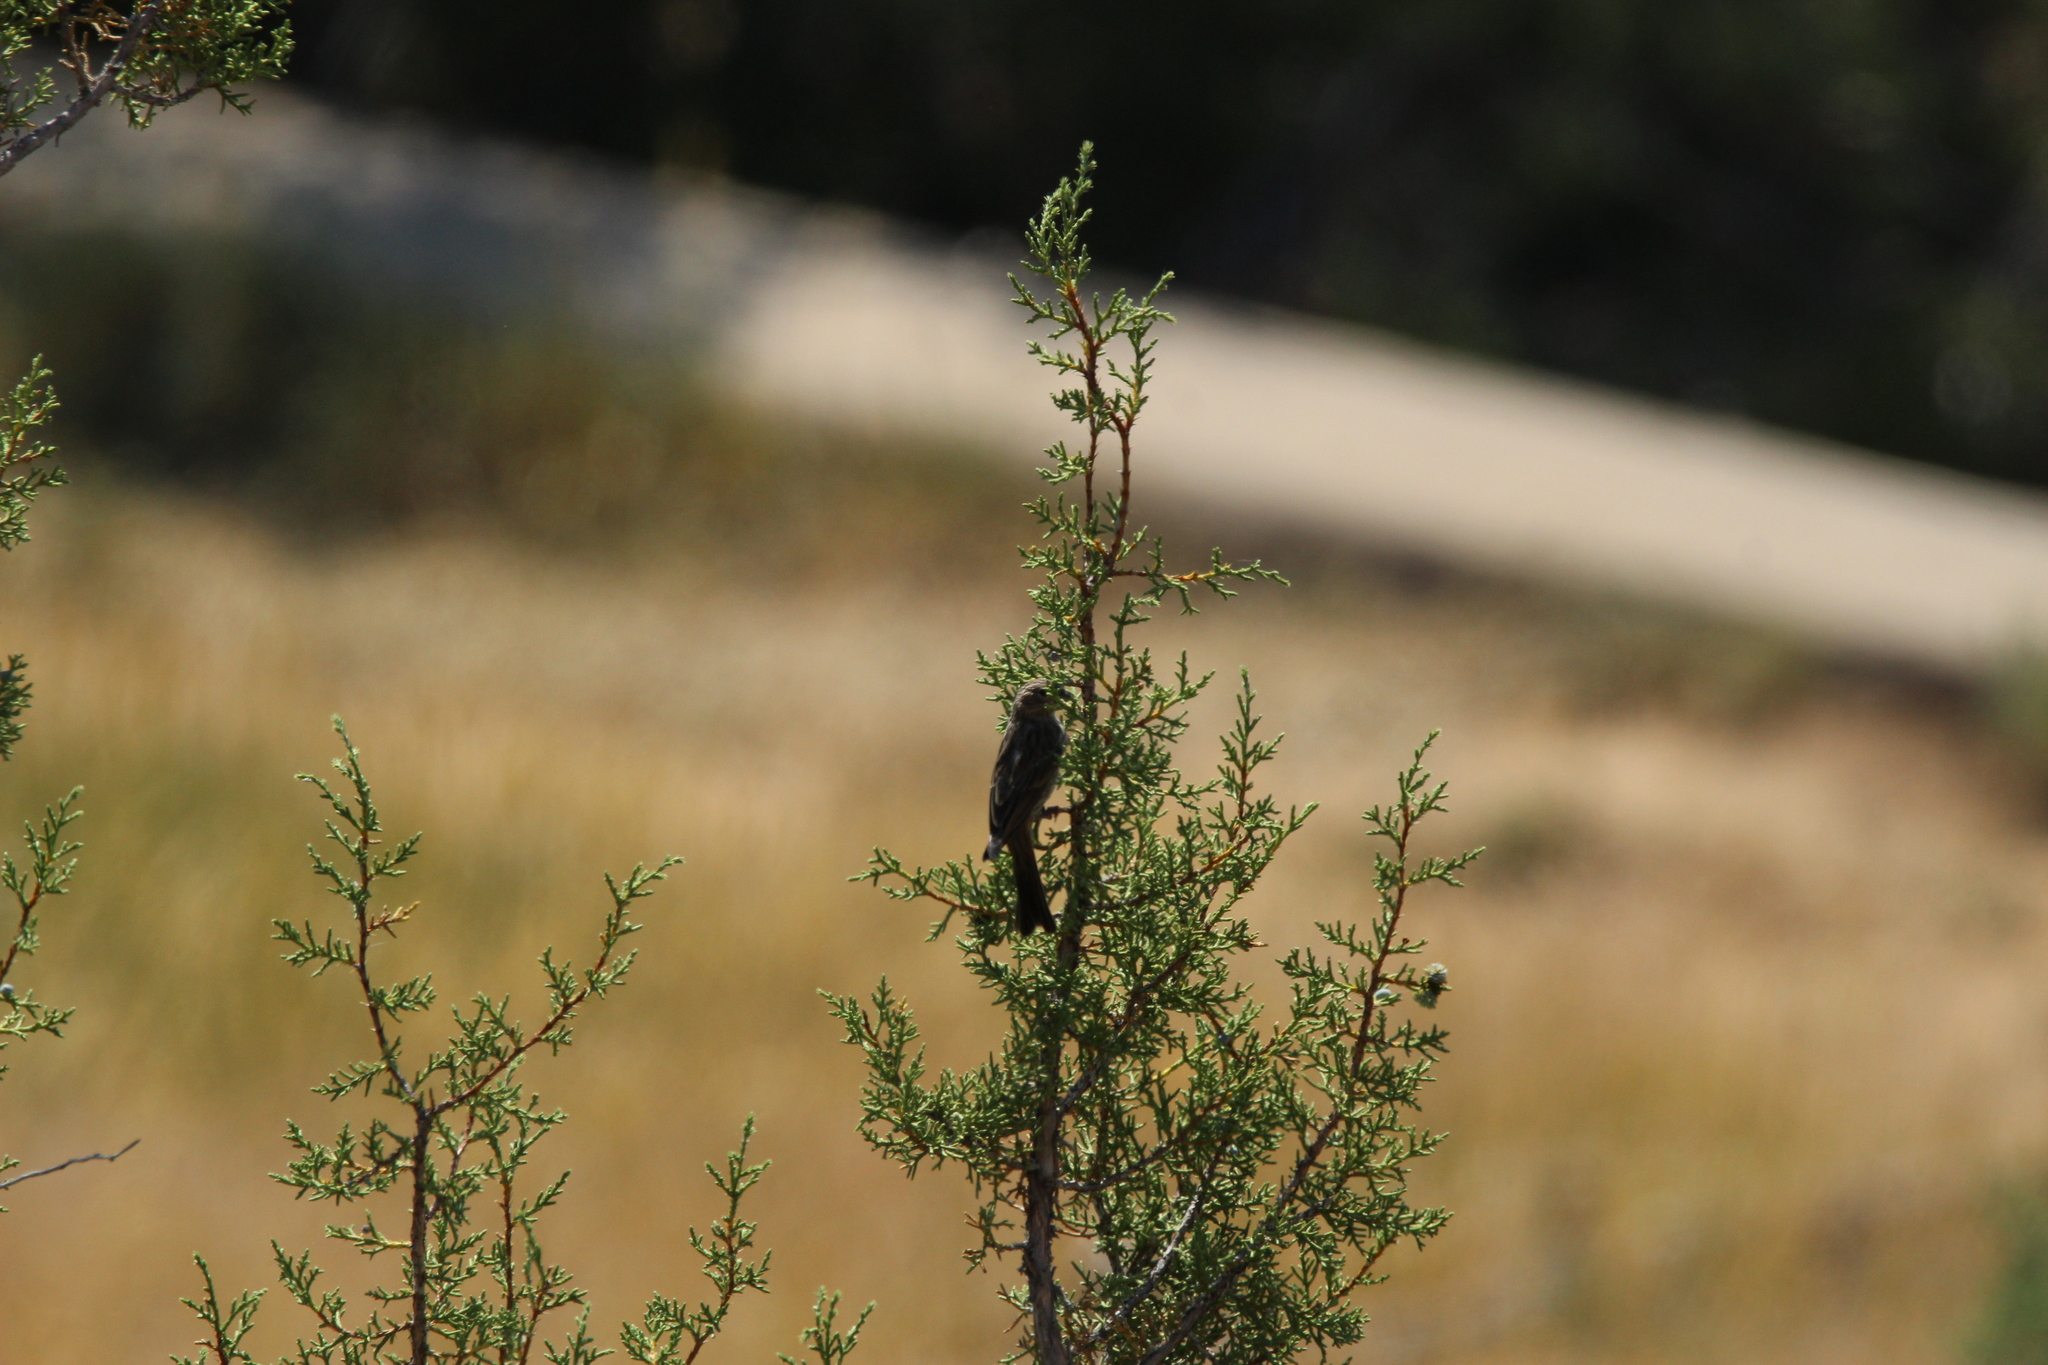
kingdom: Animalia
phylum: Chordata
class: Aves
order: Passeriformes
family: Fringillidae
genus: Haemorhous
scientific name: Haemorhous mexicanus
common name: House finch
